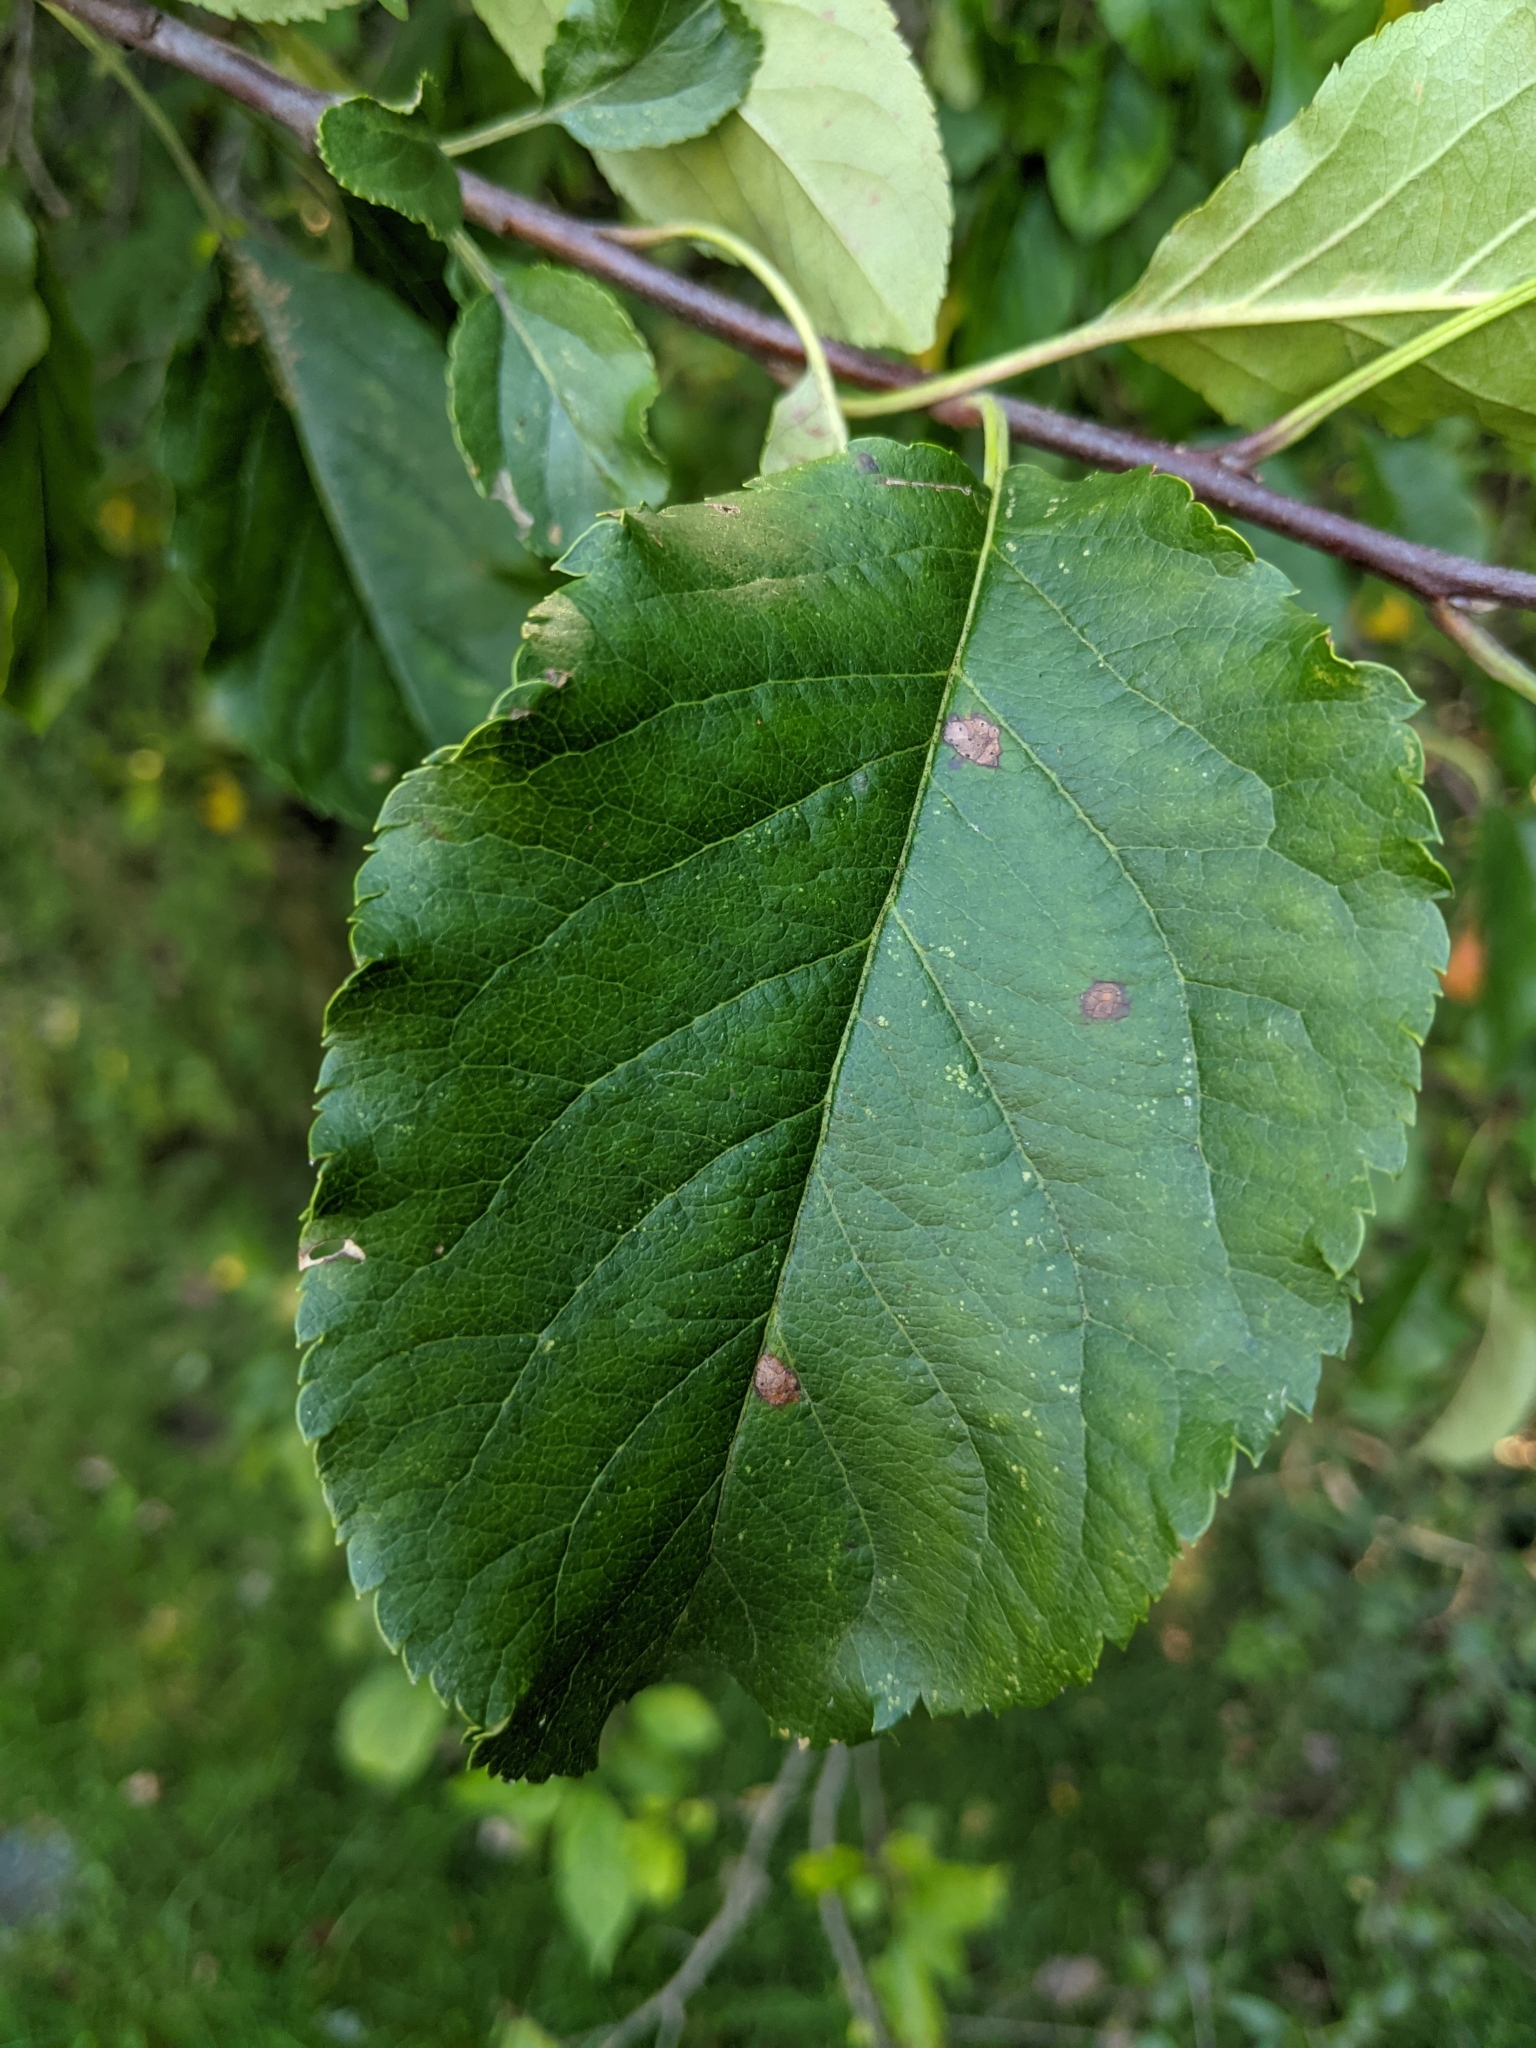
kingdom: Plantae
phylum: Tracheophyta
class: Magnoliopsida
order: Rosales
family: Rosaceae
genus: Malus
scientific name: Malus domestica
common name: Apple
